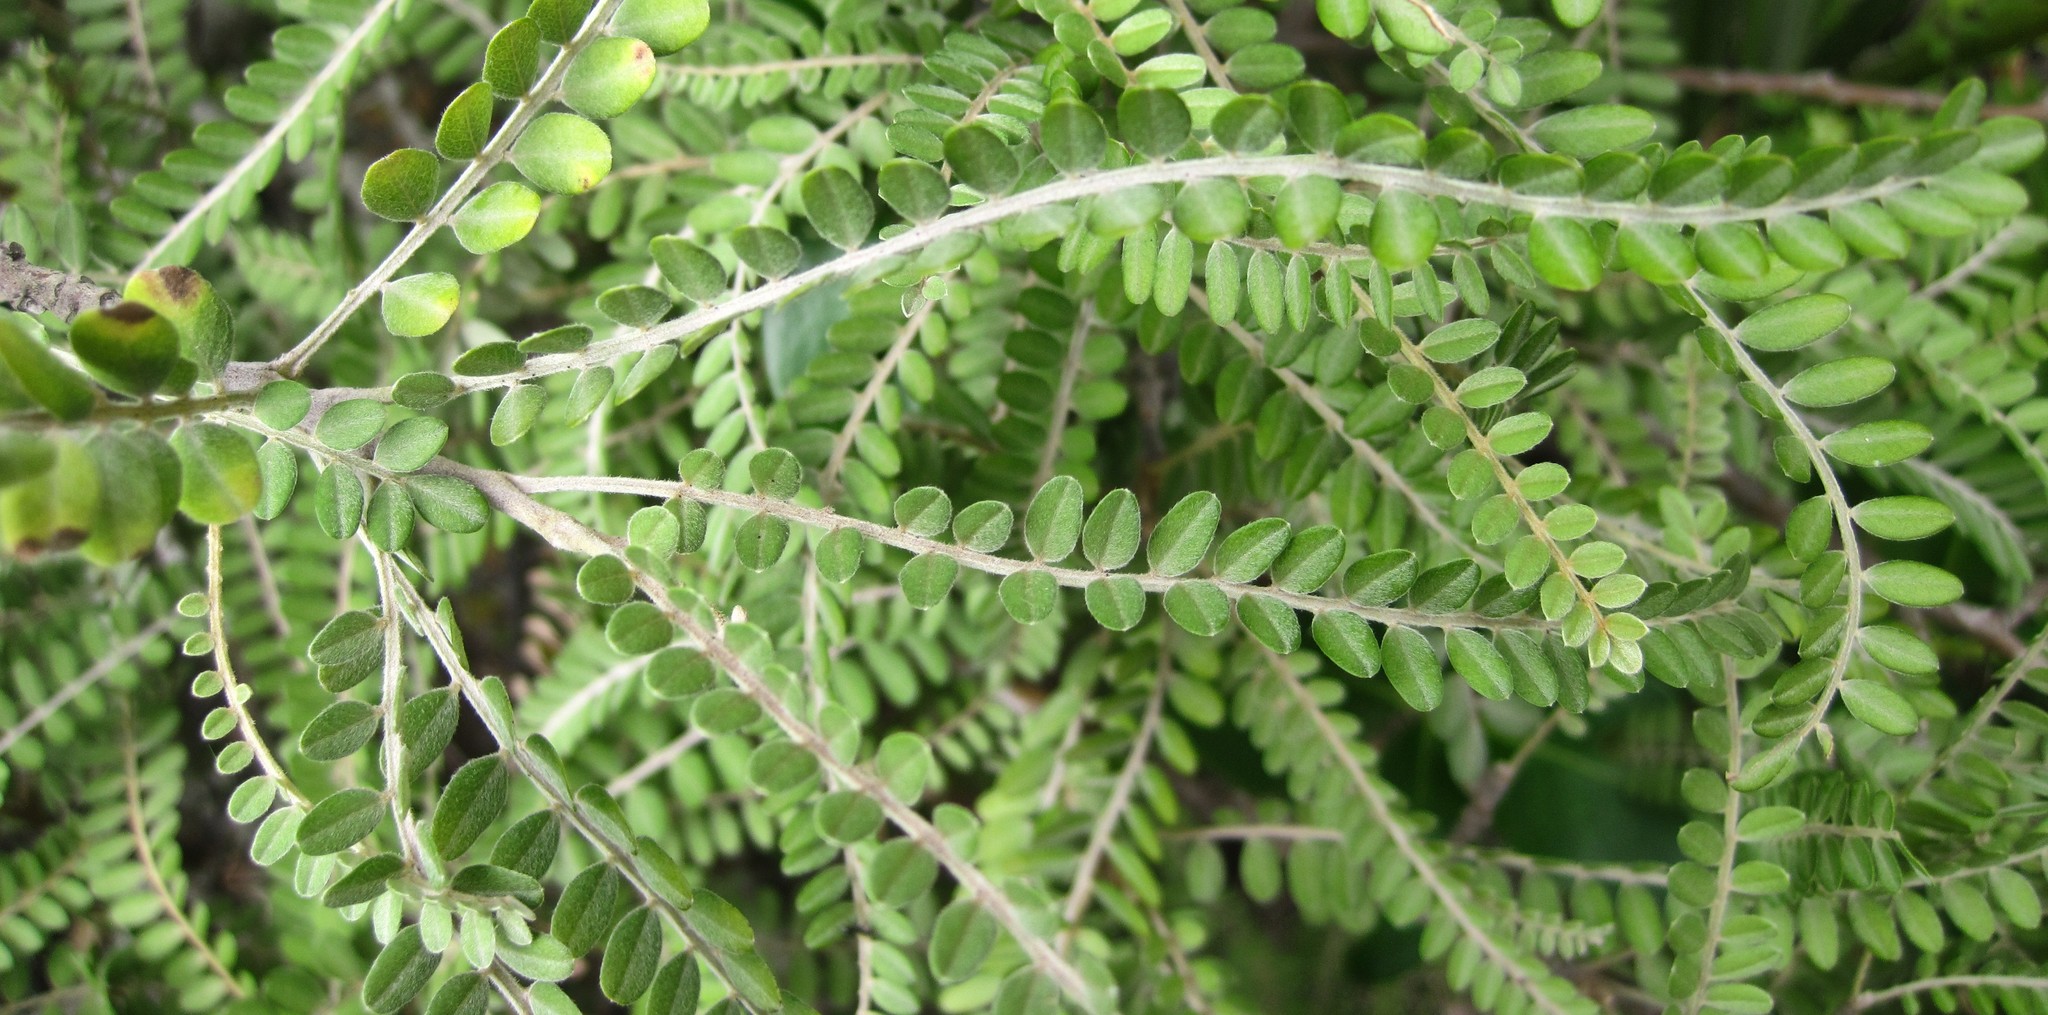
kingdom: Plantae
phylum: Tracheophyta
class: Magnoliopsida
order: Fabales
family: Fabaceae
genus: Sophora
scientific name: Sophora microphylla
